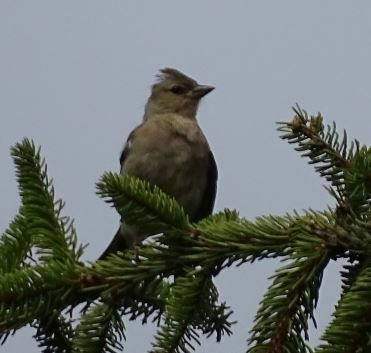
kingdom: Animalia
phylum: Chordata
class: Aves
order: Passeriformes
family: Fringillidae
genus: Fringilla
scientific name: Fringilla coelebs
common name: Common chaffinch
